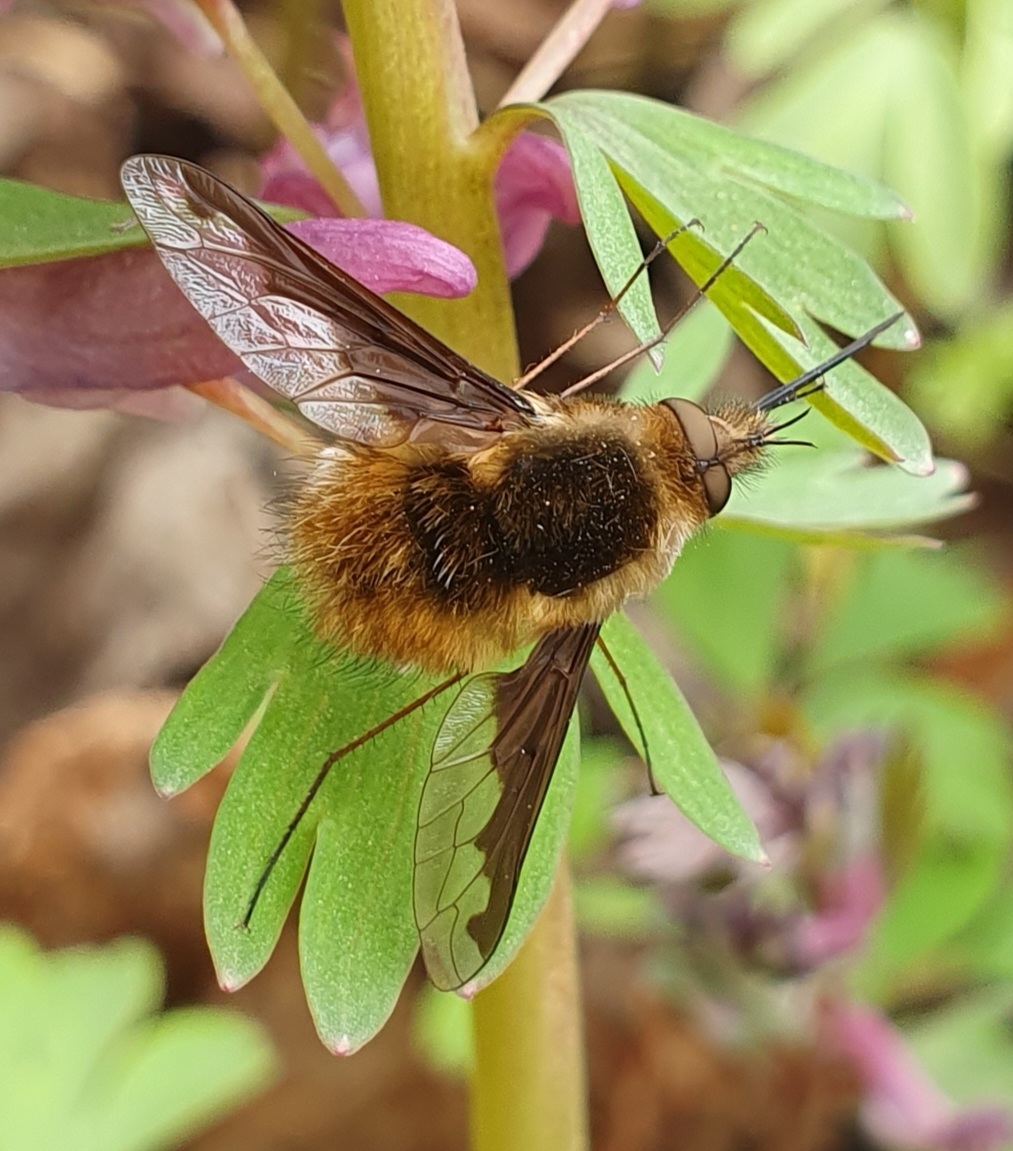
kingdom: Animalia
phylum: Arthropoda
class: Insecta
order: Diptera
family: Bombyliidae
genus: Bombylius
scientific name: Bombylius major
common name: Bee fly
